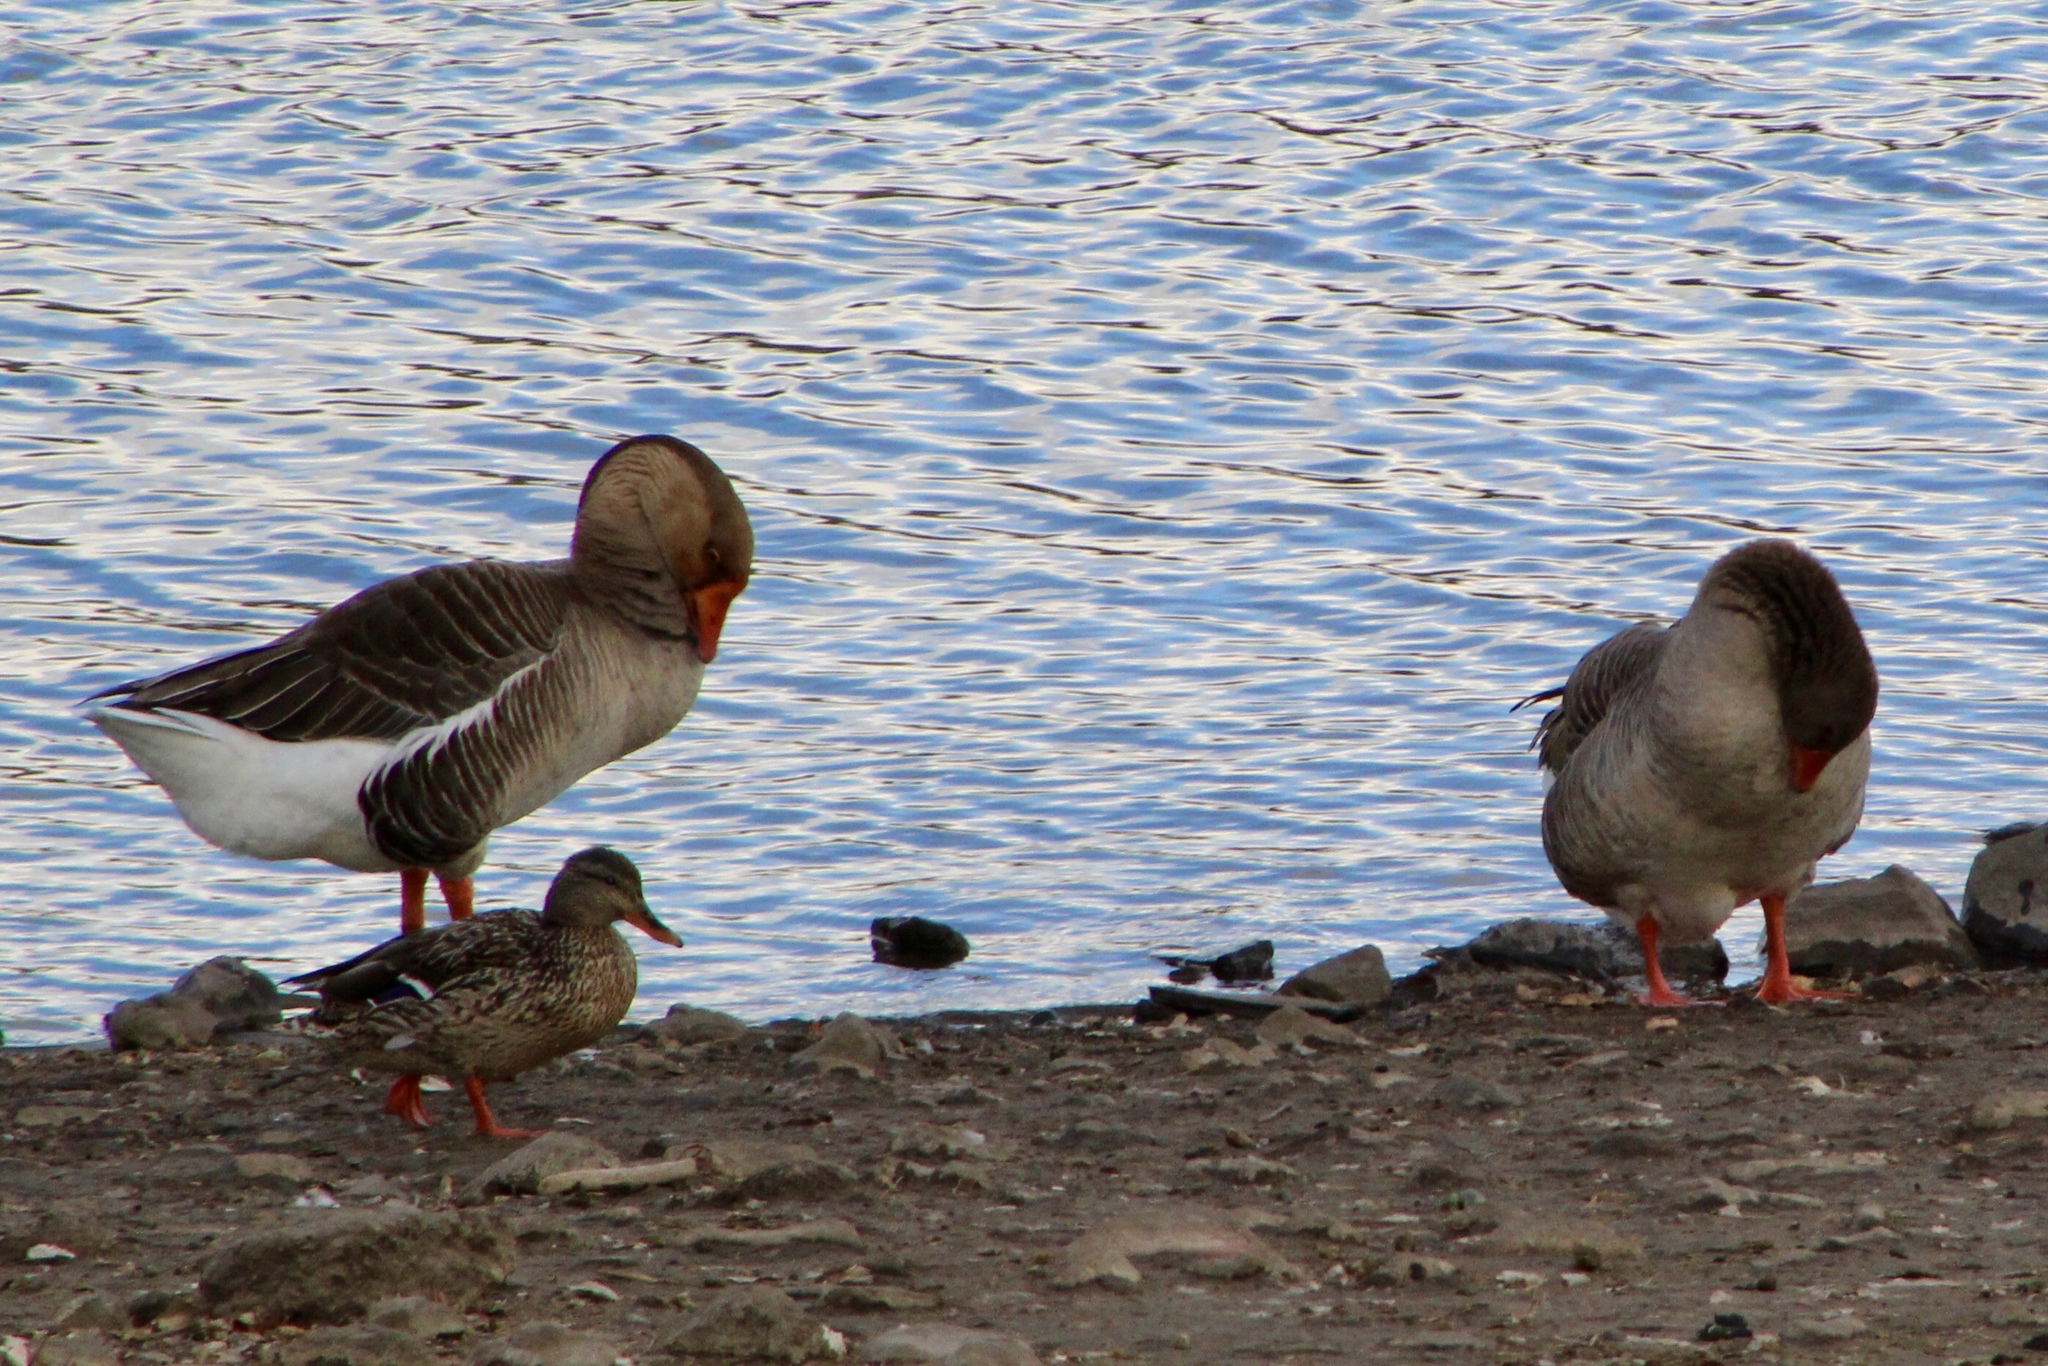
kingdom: Animalia
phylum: Chordata
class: Aves
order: Anseriformes
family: Anatidae
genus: Anser
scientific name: Anser anser
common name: Greylag goose
